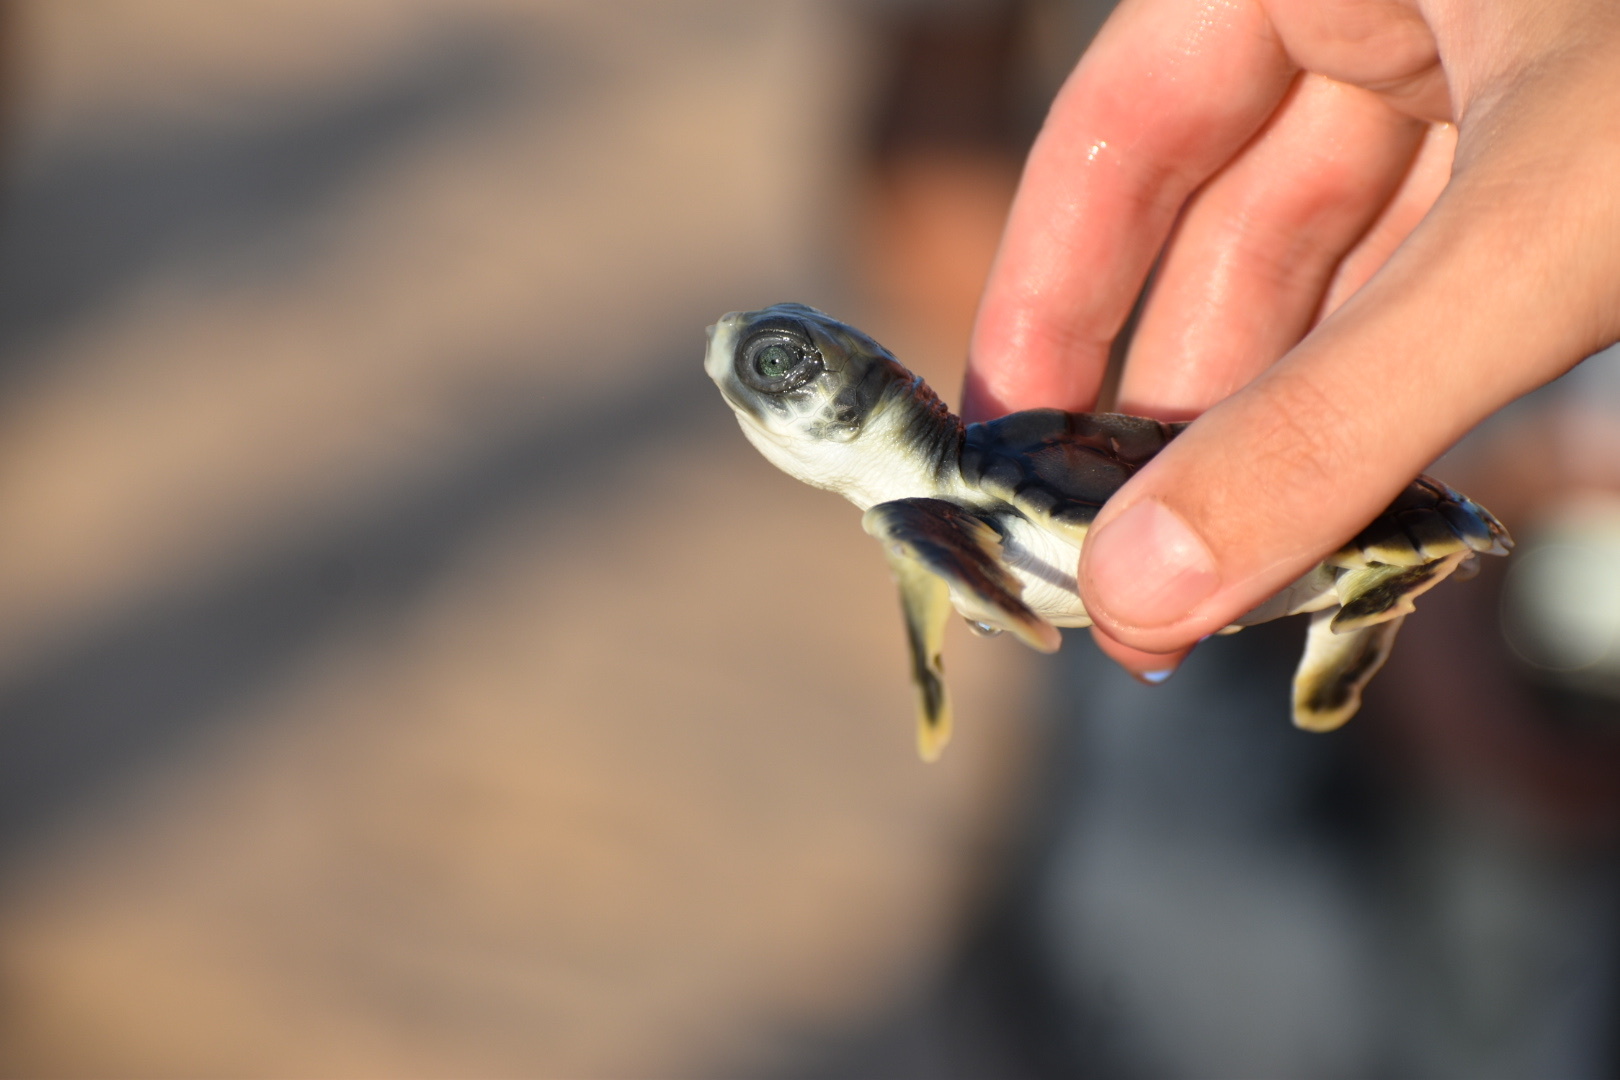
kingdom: Animalia
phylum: Chordata
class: Testudines
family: Cheloniidae
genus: Natator
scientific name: Natator depressus
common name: Flatback turtle
